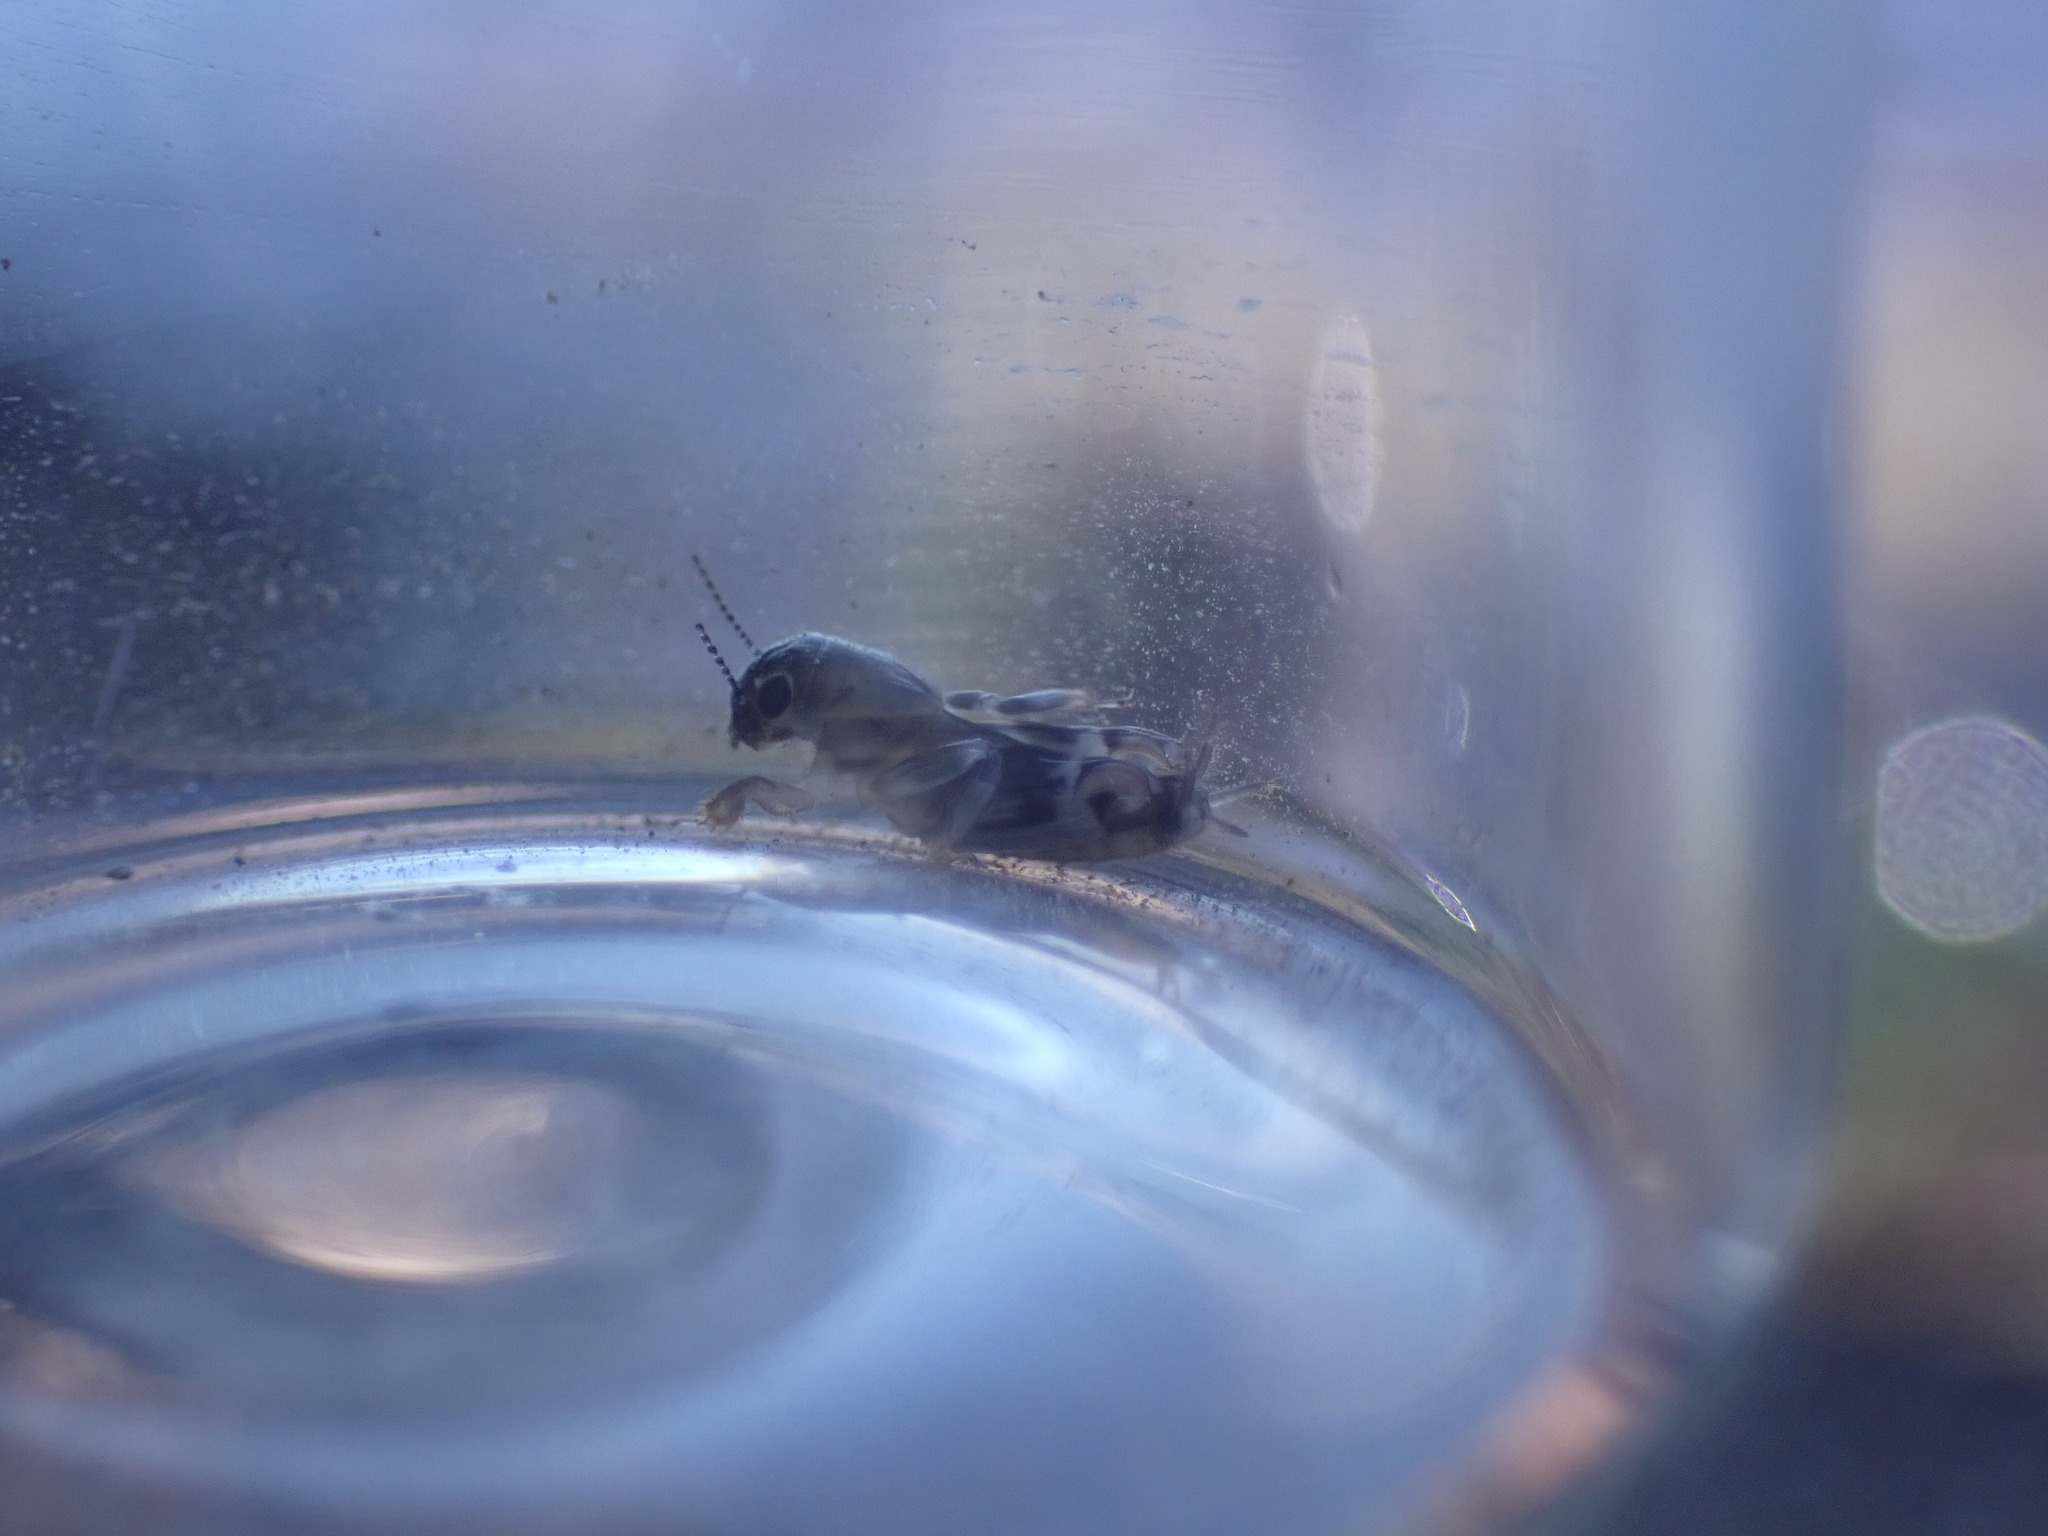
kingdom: Animalia
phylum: Arthropoda
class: Insecta
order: Orthoptera
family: Tridactylidae
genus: Neotridactylus
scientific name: Neotridactylus apicialis
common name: Larger pygmy locust
